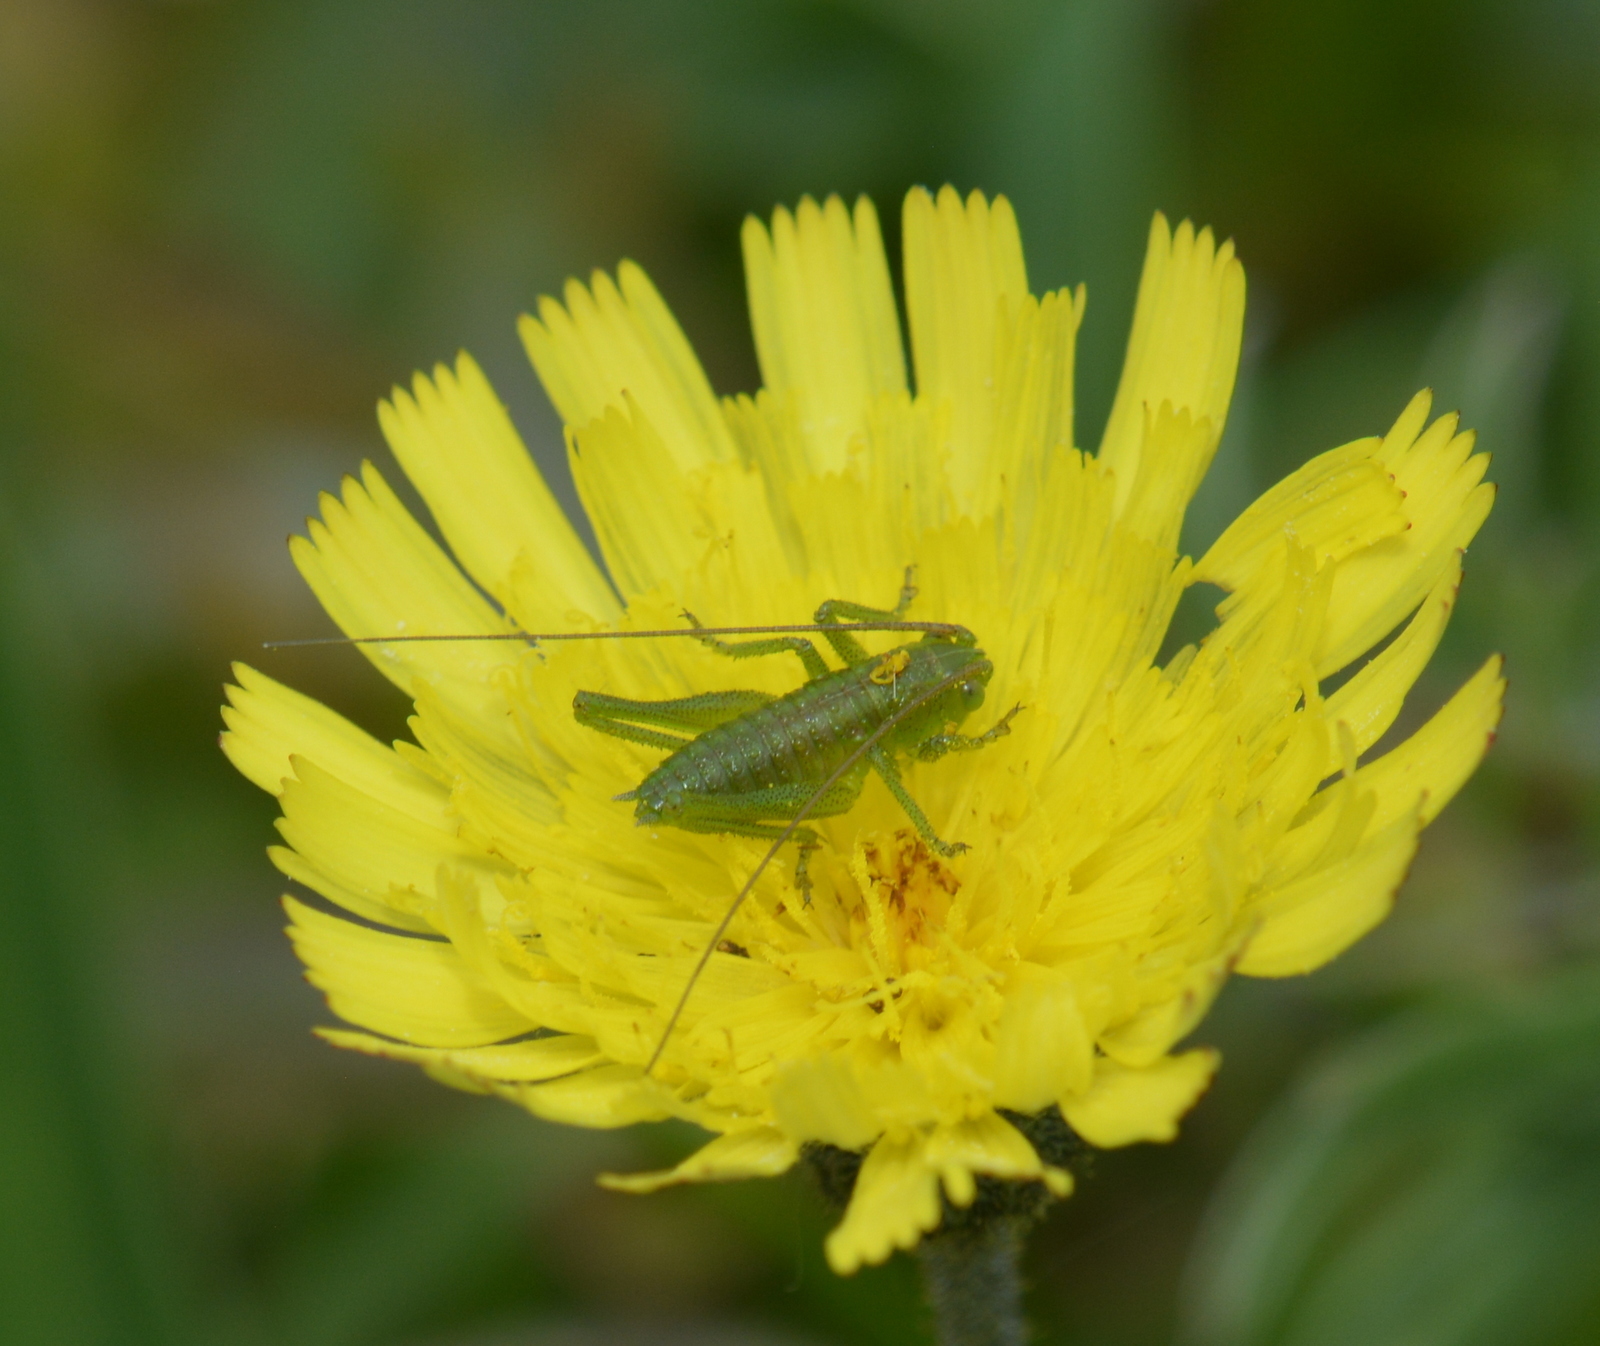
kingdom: Animalia
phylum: Arthropoda
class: Insecta
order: Orthoptera
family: Tettigoniidae
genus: Tettigonia
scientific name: Tettigonia viridissima
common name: Great green bush-cricket
